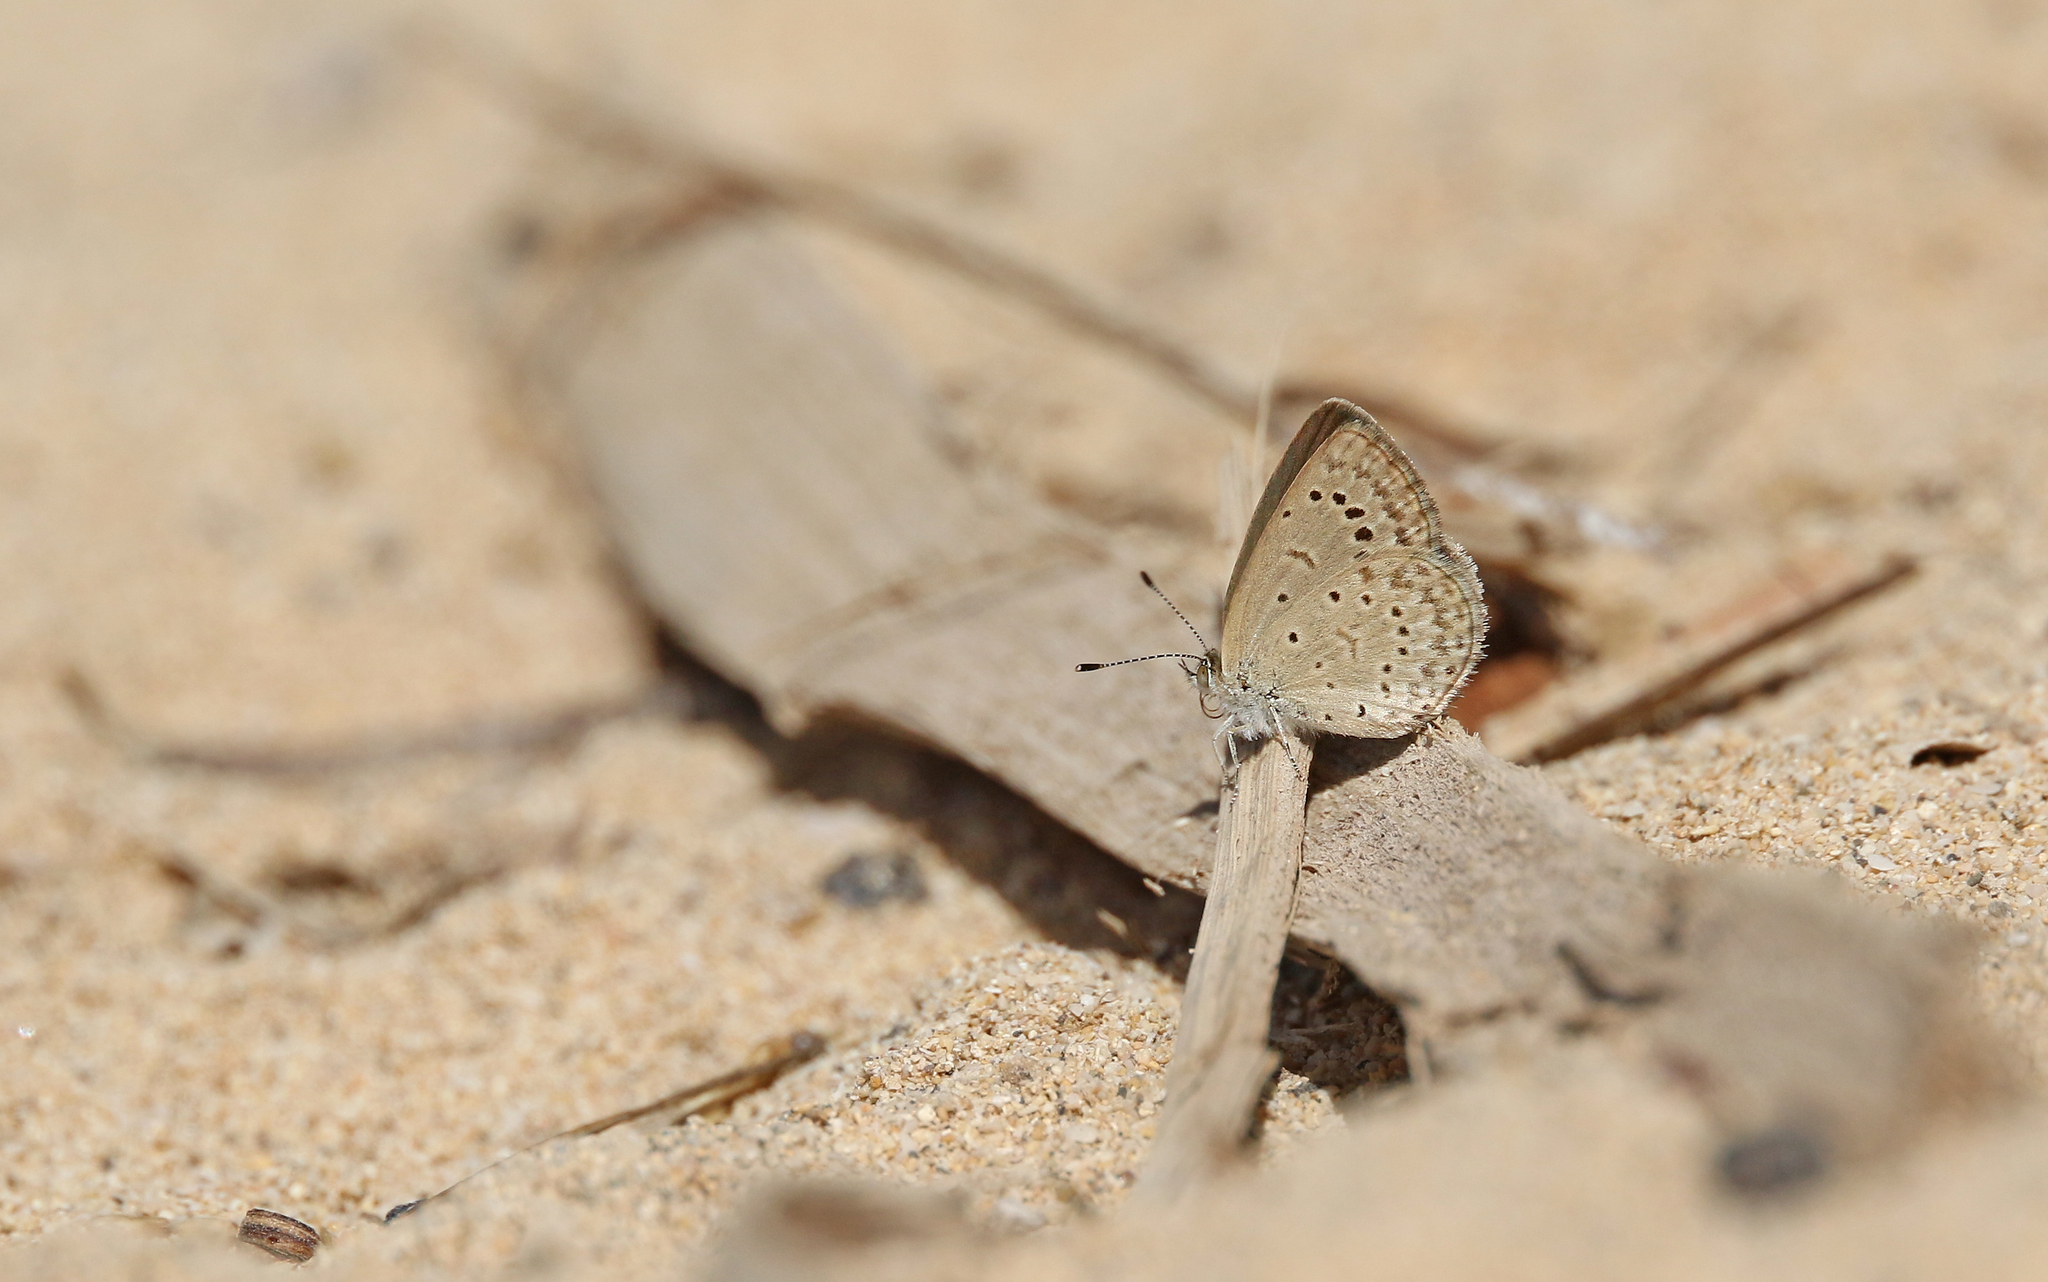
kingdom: Animalia
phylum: Arthropoda
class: Insecta
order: Lepidoptera
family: Lycaenidae
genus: Zizeeria
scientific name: Zizeeria knysna
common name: African grass blue
